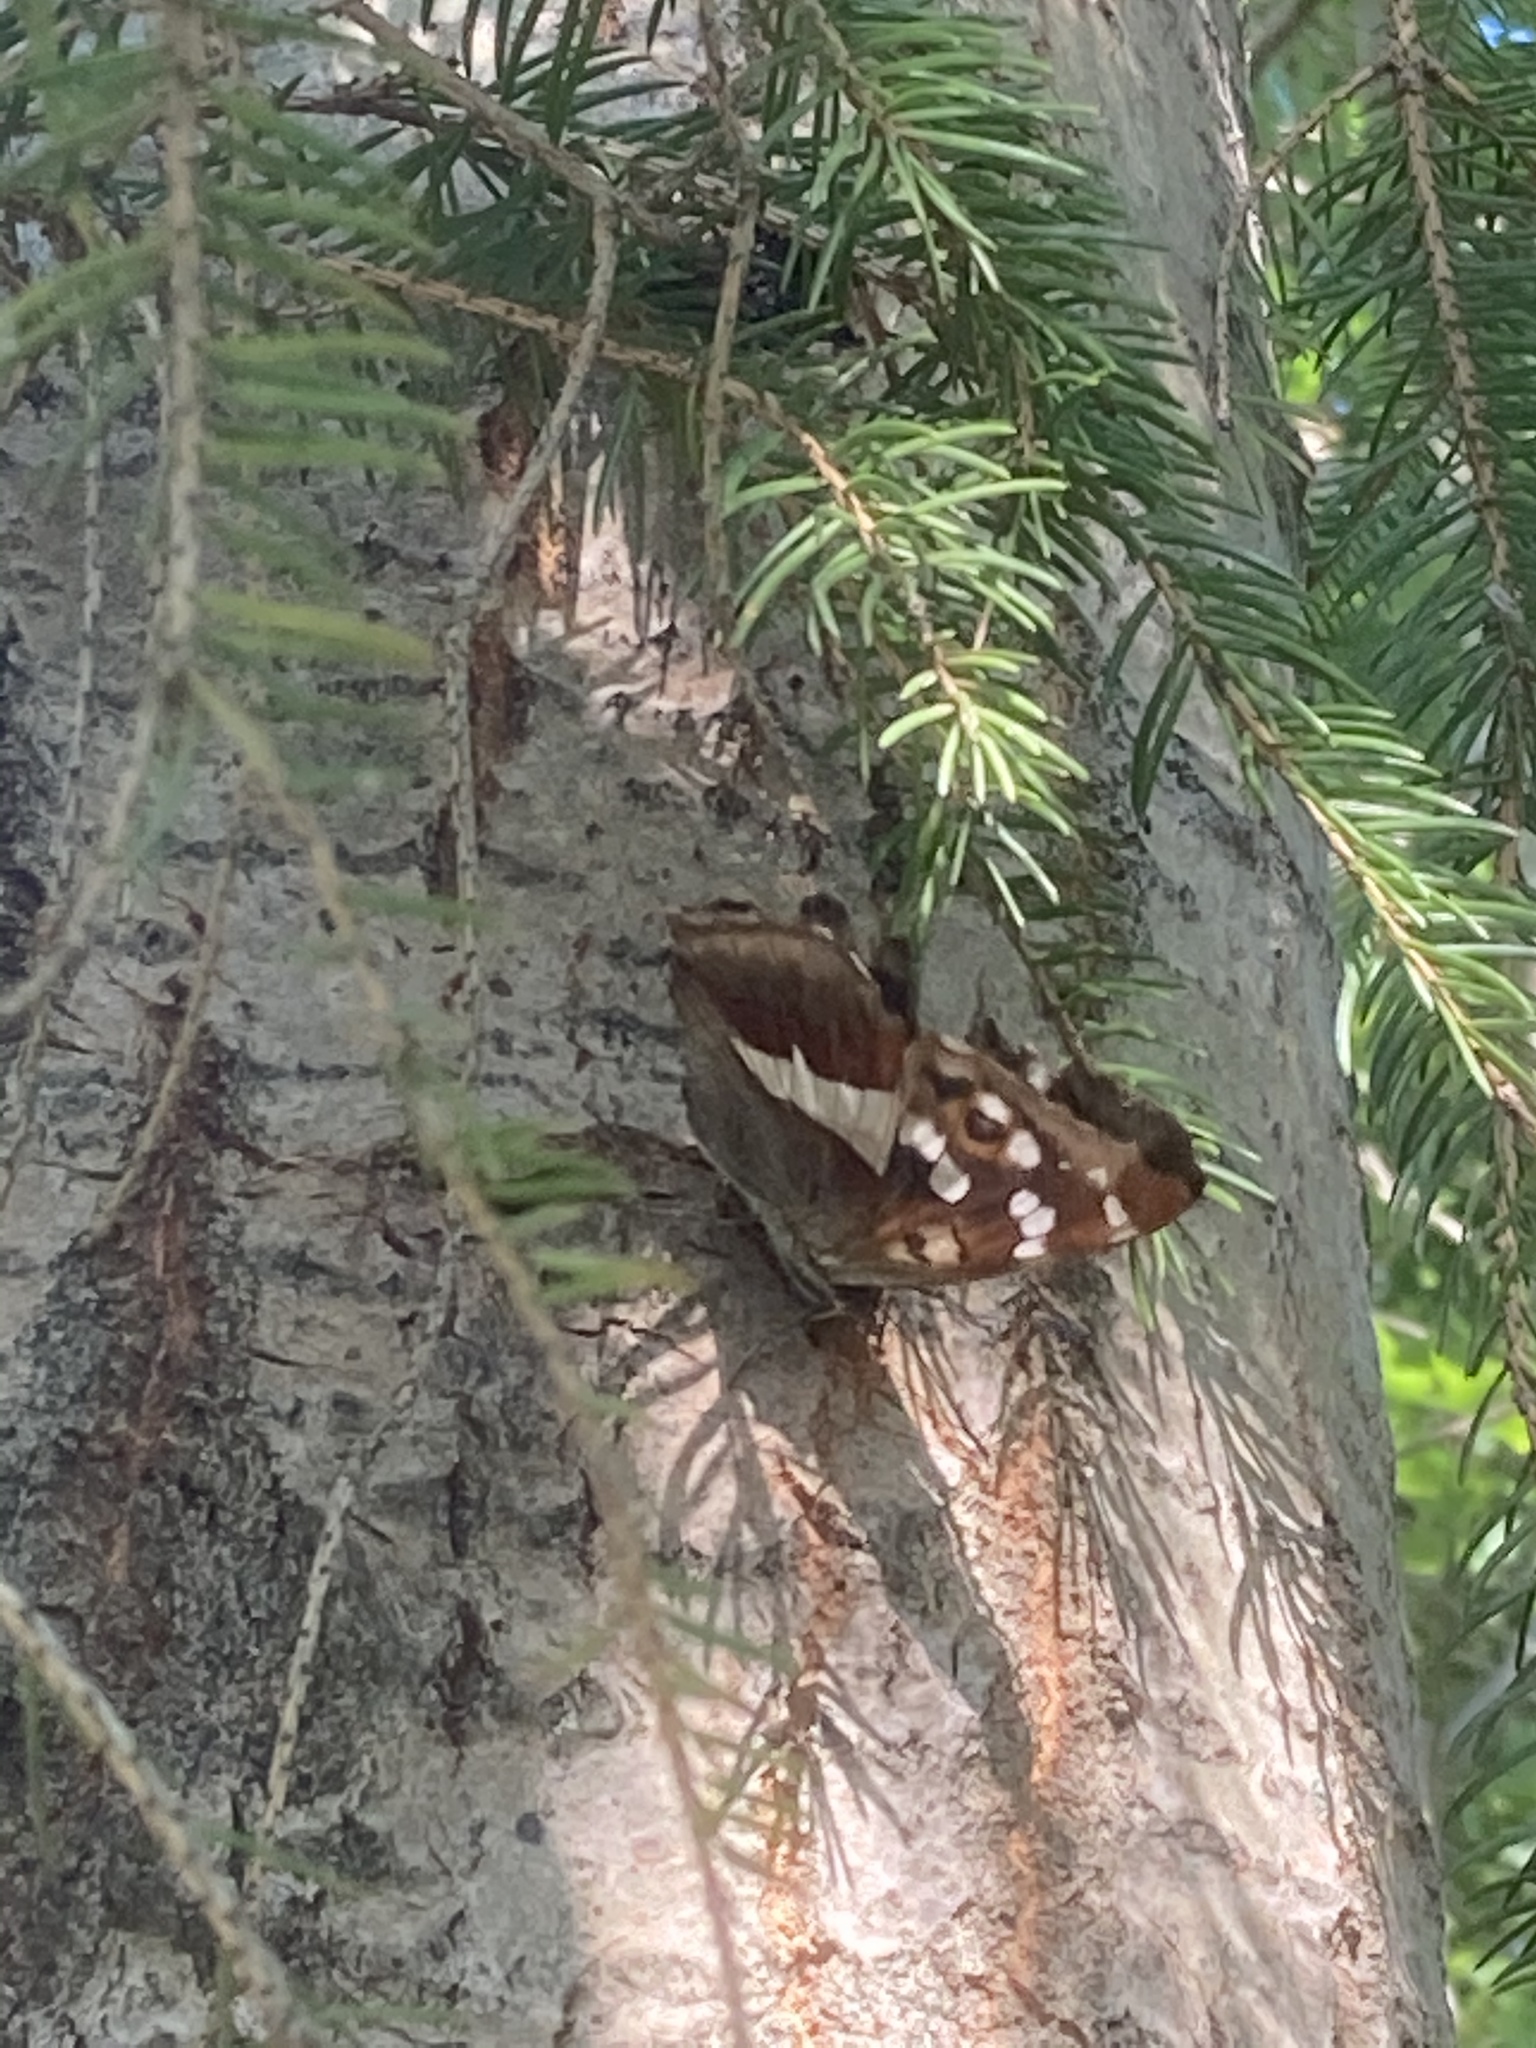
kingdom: Animalia
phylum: Arthropoda
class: Insecta
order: Lepidoptera
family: Nymphalidae
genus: Apatura
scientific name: Apatura iris
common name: Purple emperor
